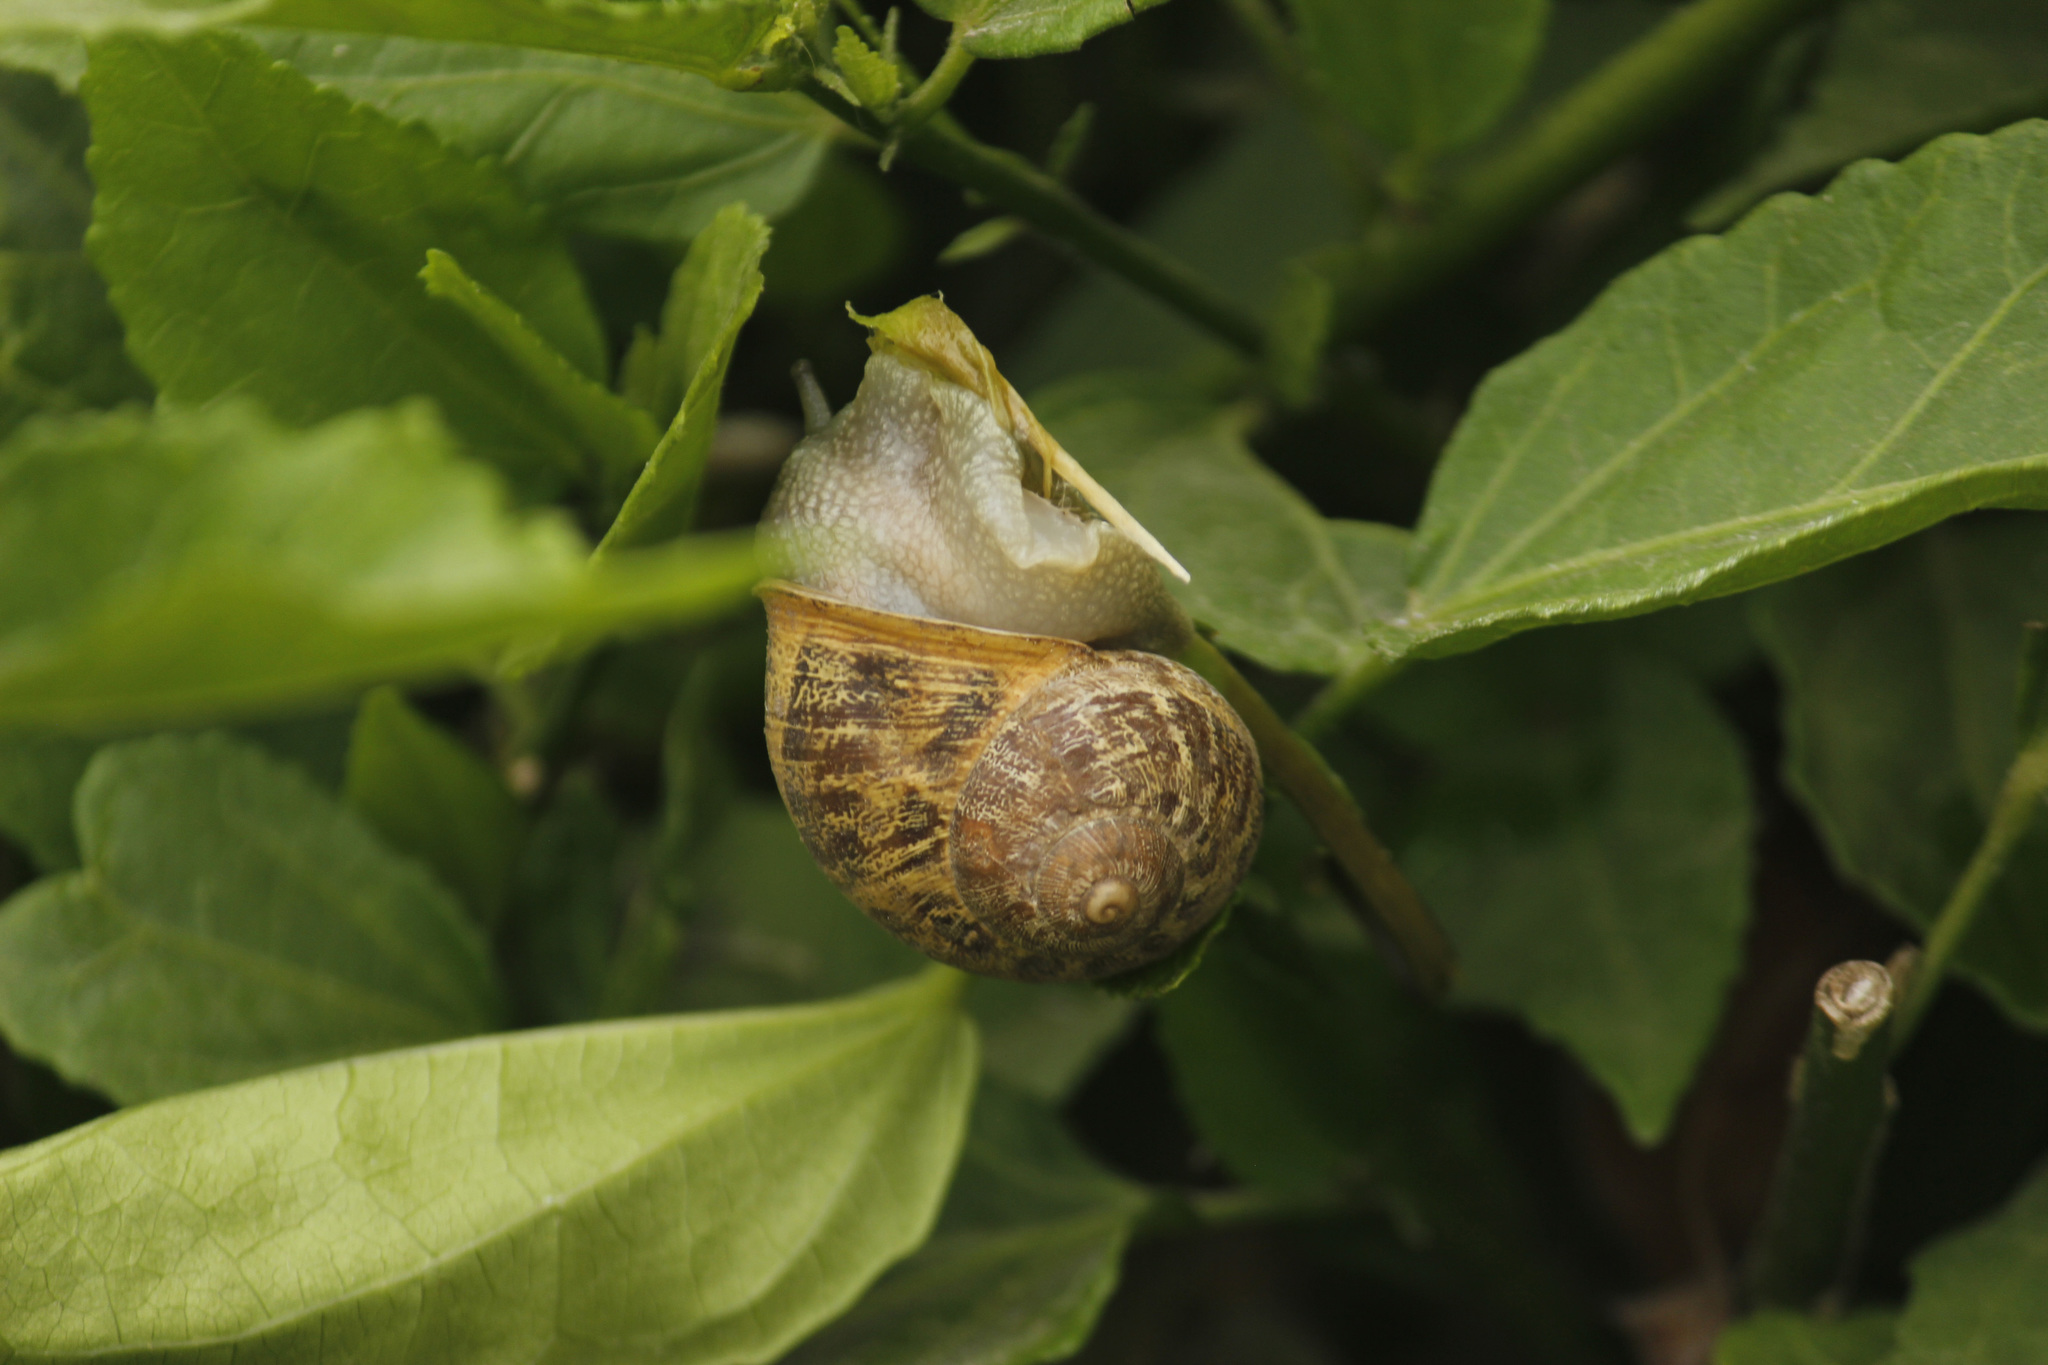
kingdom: Animalia
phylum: Mollusca
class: Gastropoda
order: Stylommatophora
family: Helicidae
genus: Cornu
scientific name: Cornu aspersum
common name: Brown garden snail
